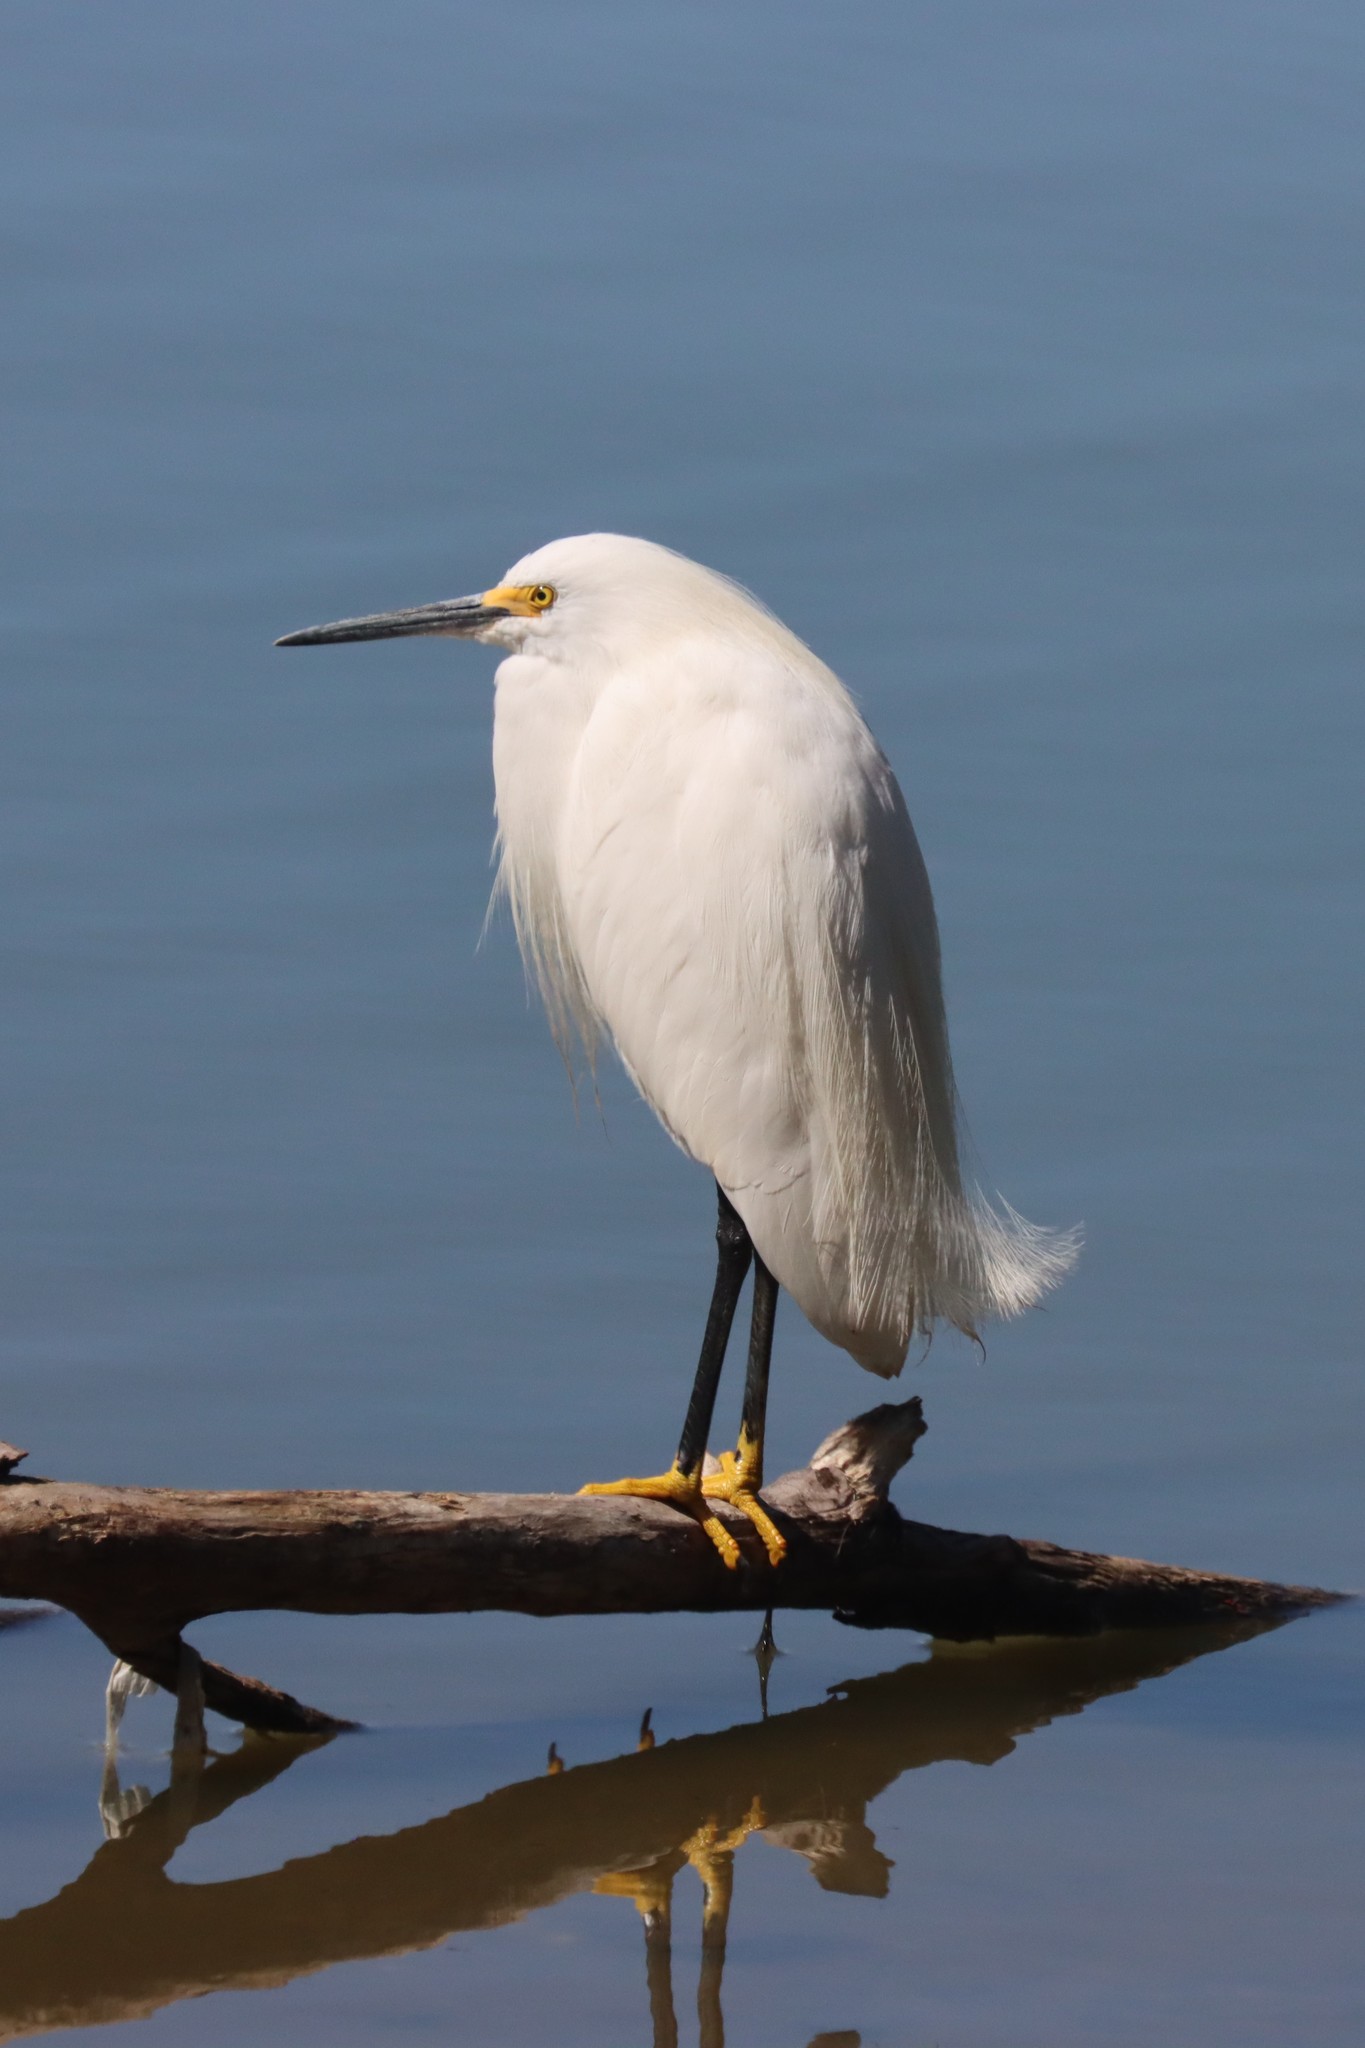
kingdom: Animalia
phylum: Chordata
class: Aves
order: Pelecaniformes
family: Ardeidae
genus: Egretta
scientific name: Egretta thula
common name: Snowy egret
